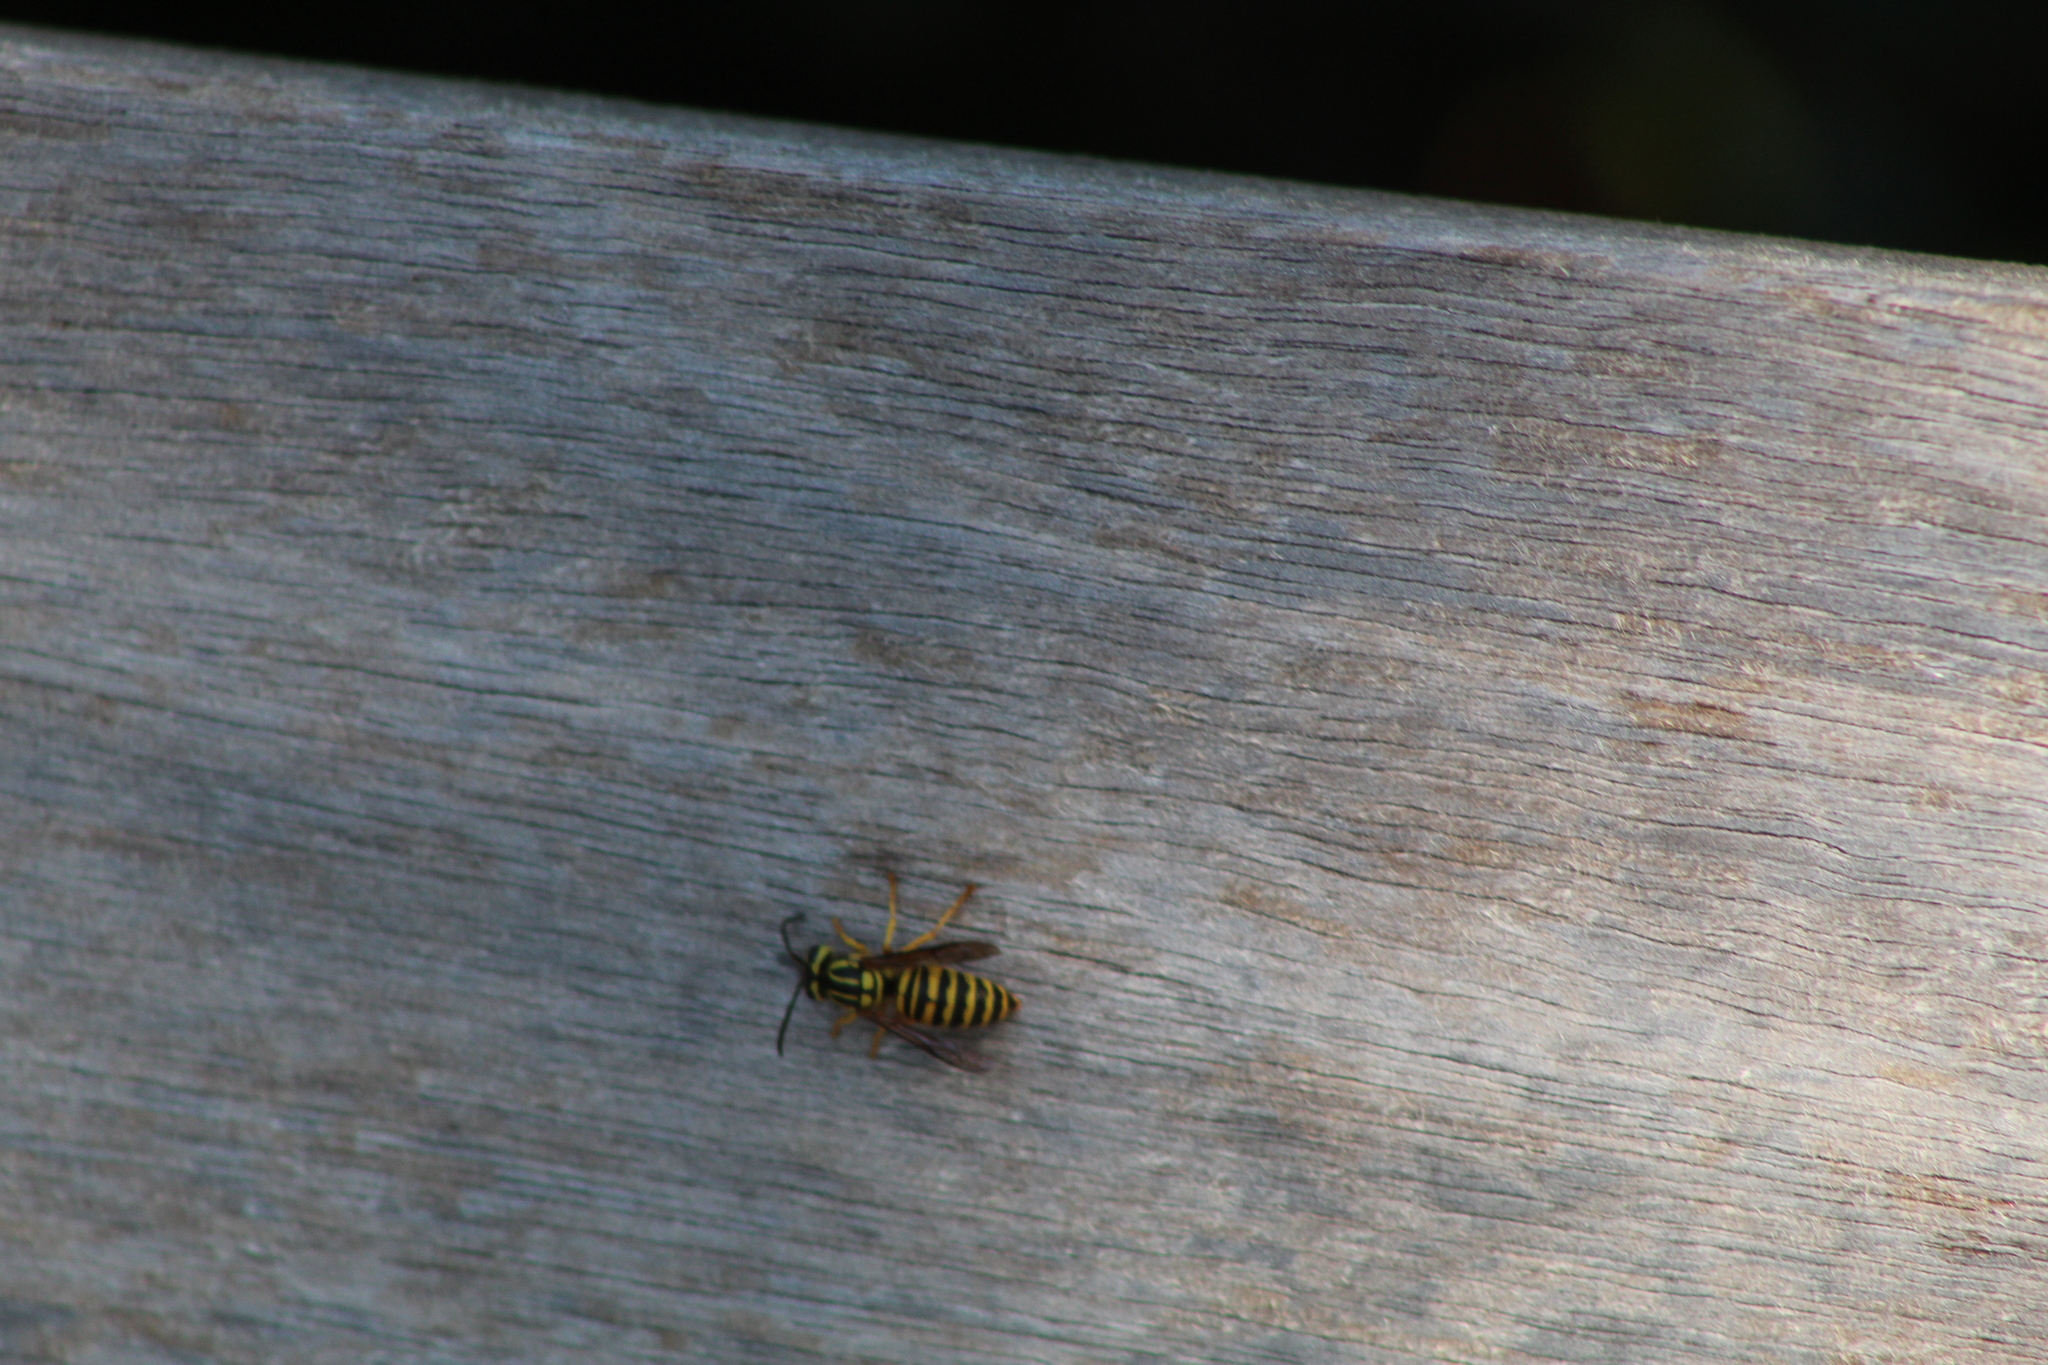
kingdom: Animalia
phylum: Arthropoda
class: Insecta
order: Hymenoptera
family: Vespidae
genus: Vespula
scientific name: Vespula squamosa
